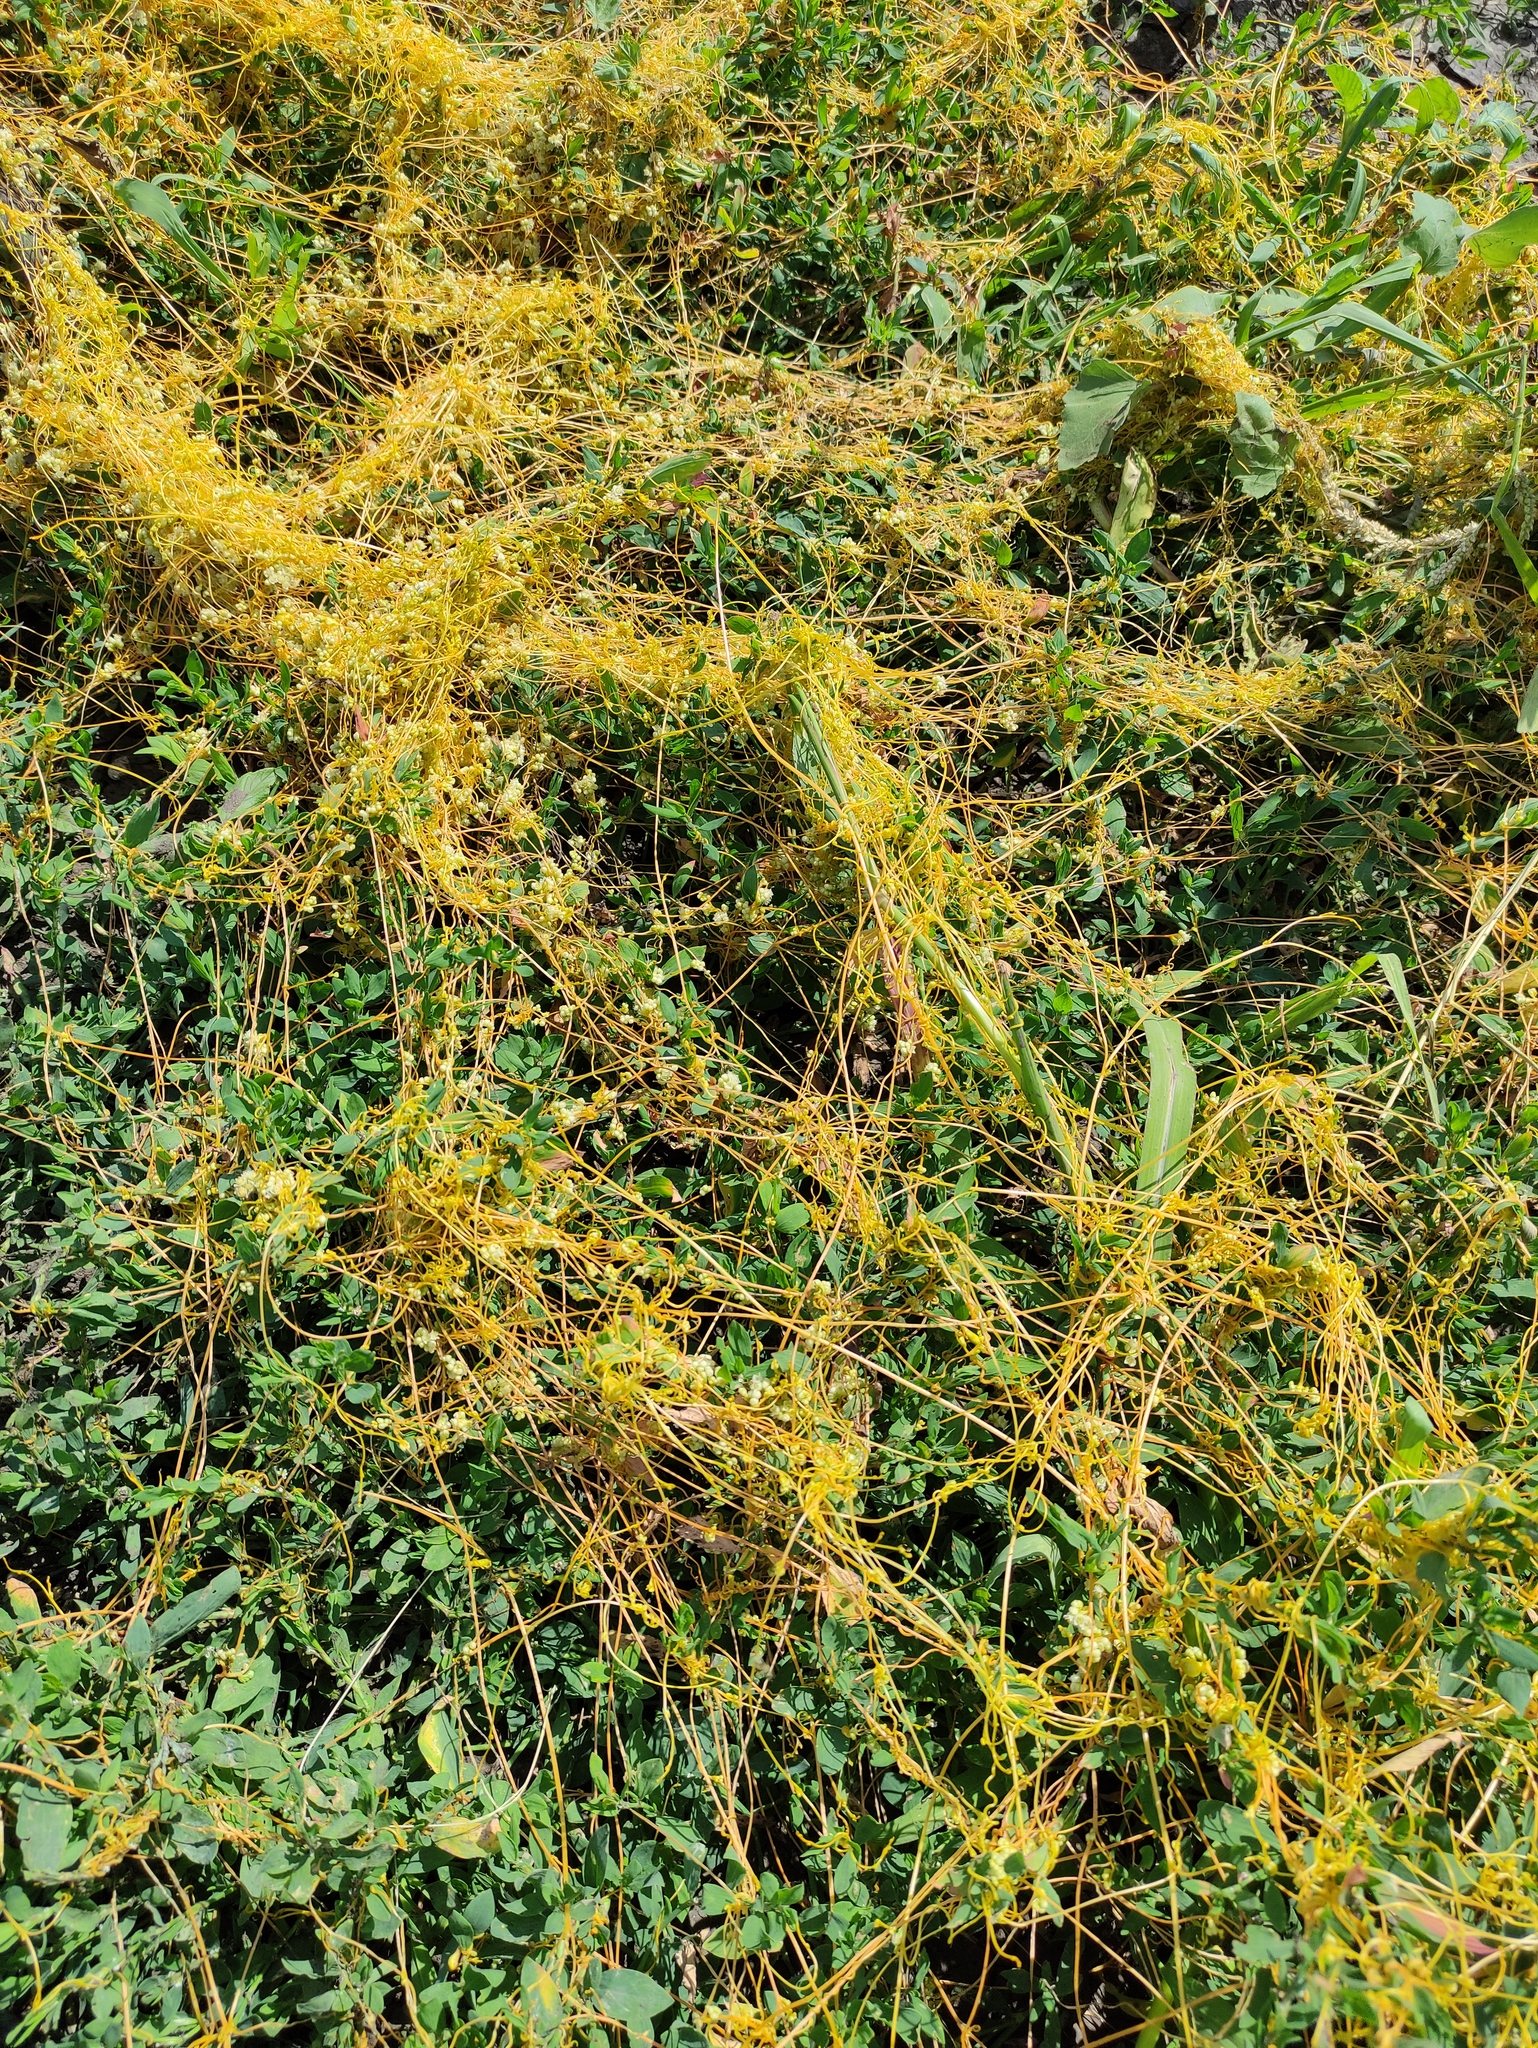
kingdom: Plantae
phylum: Tracheophyta
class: Magnoliopsida
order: Solanales
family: Convolvulaceae
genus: Cuscuta
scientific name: Cuscuta campestris
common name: Yellow dodder
